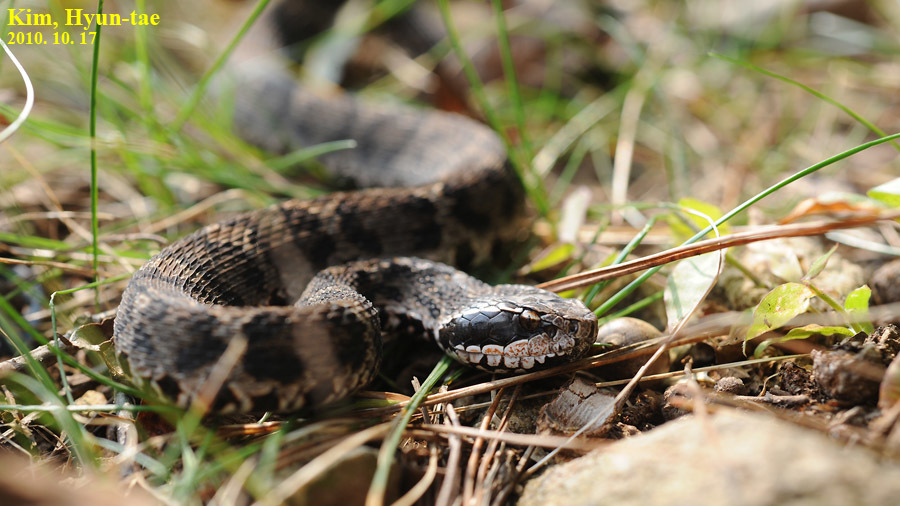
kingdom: Animalia
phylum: Chordata
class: Squamata
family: Viperidae
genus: Gloydius
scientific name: Gloydius brevicauda
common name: Short-tailed mamushi
